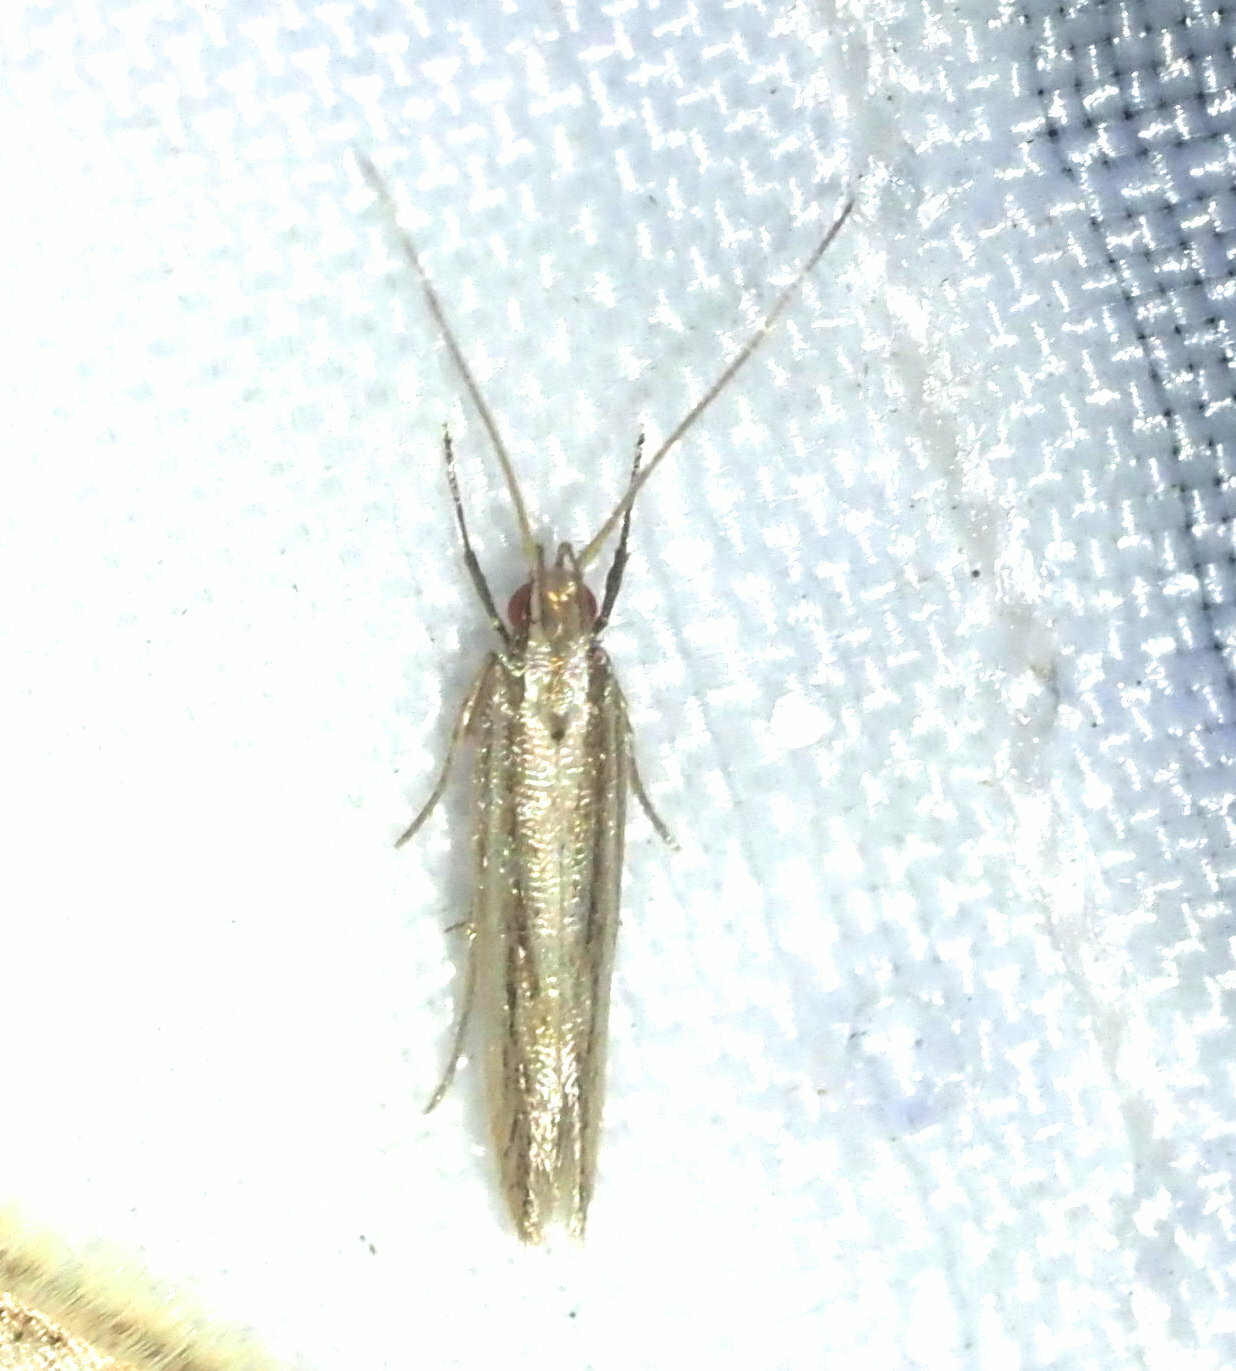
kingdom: Animalia
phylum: Arthropoda
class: Insecta
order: Lepidoptera
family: Cosmopterigidae
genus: Asymphorodes
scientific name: Asymphorodes
